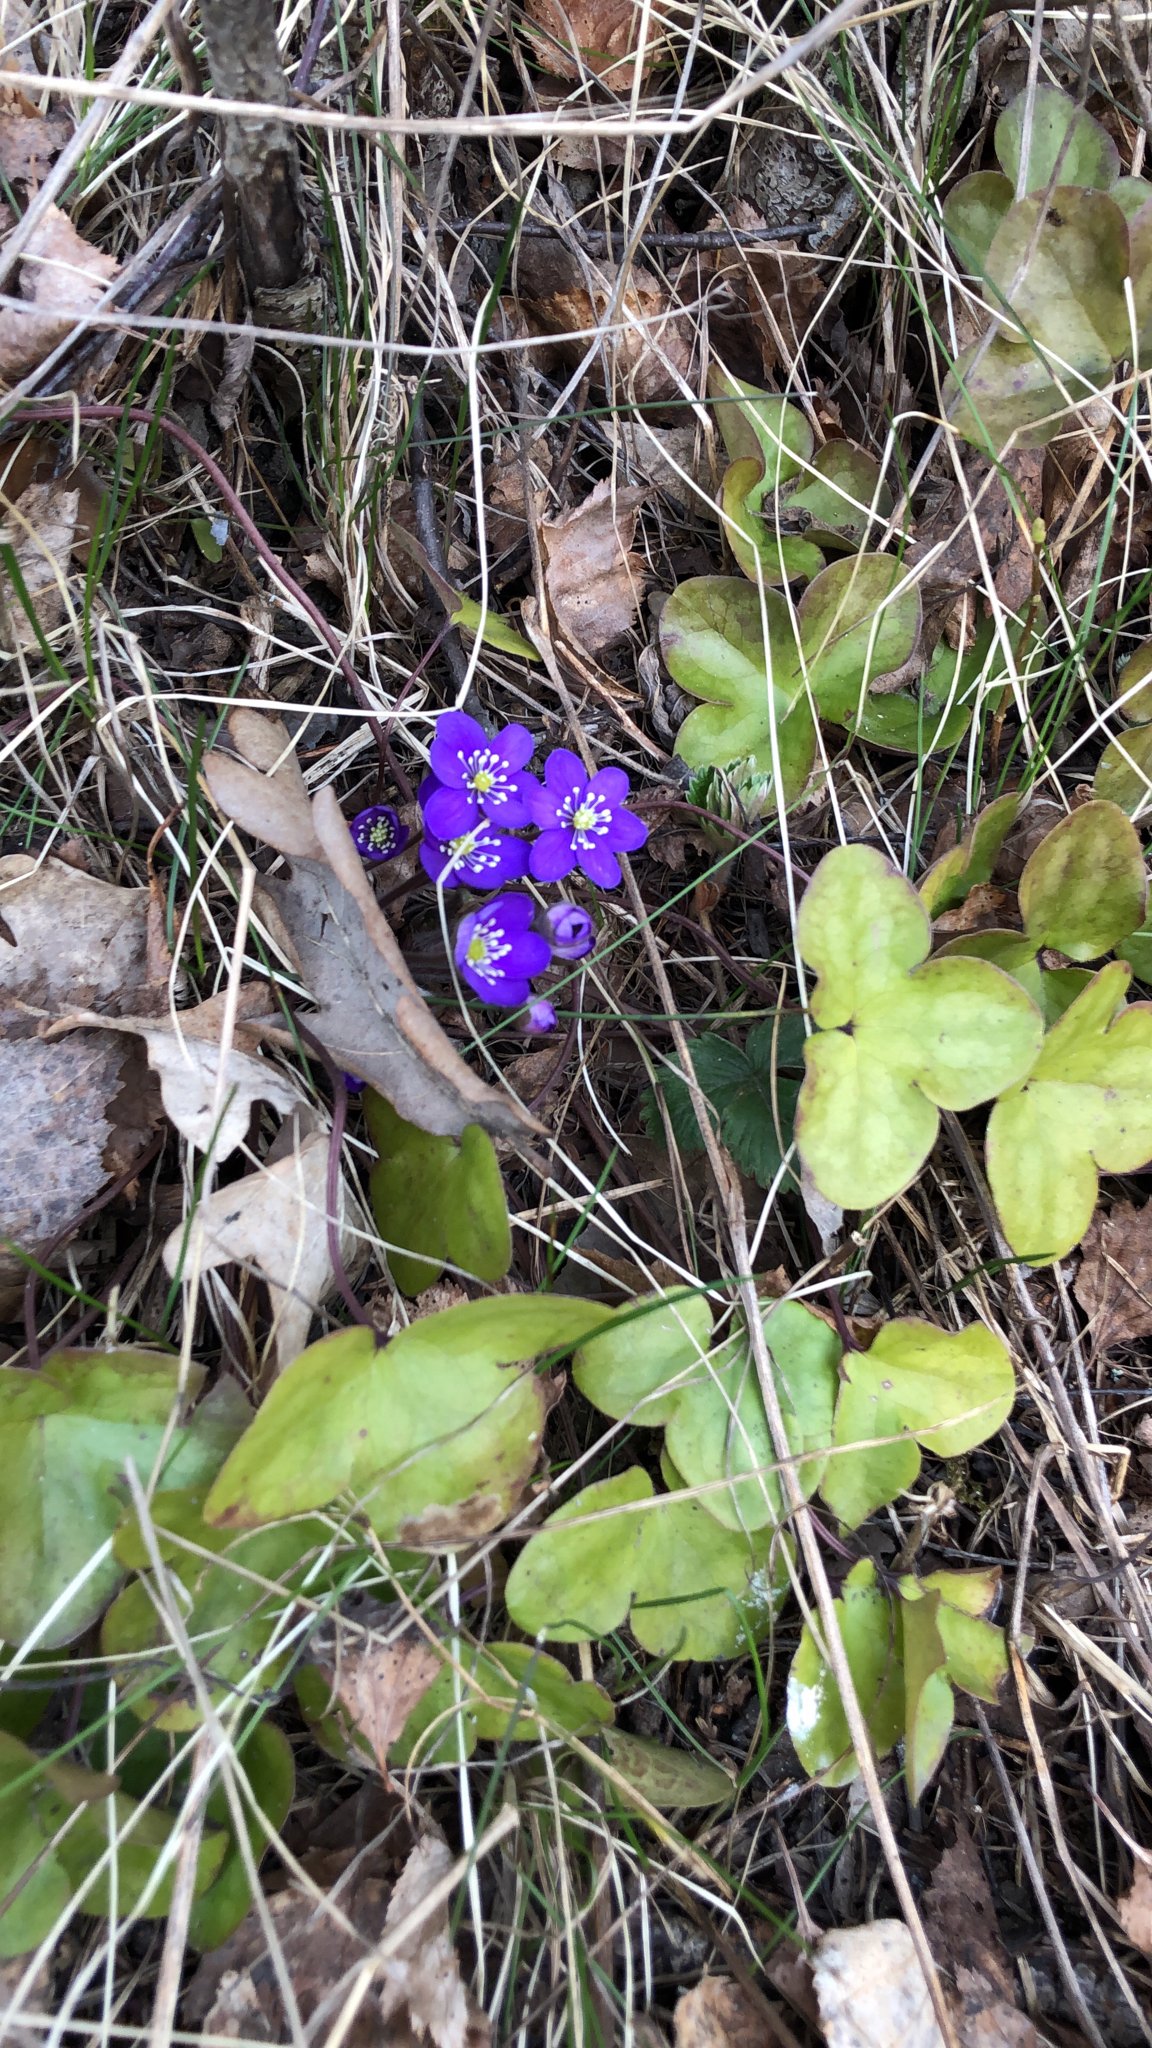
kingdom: Plantae
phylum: Tracheophyta
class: Magnoliopsida
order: Ranunculales
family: Ranunculaceae
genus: Hepatica
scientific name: Hepatica nobilis
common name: Liverleaf
